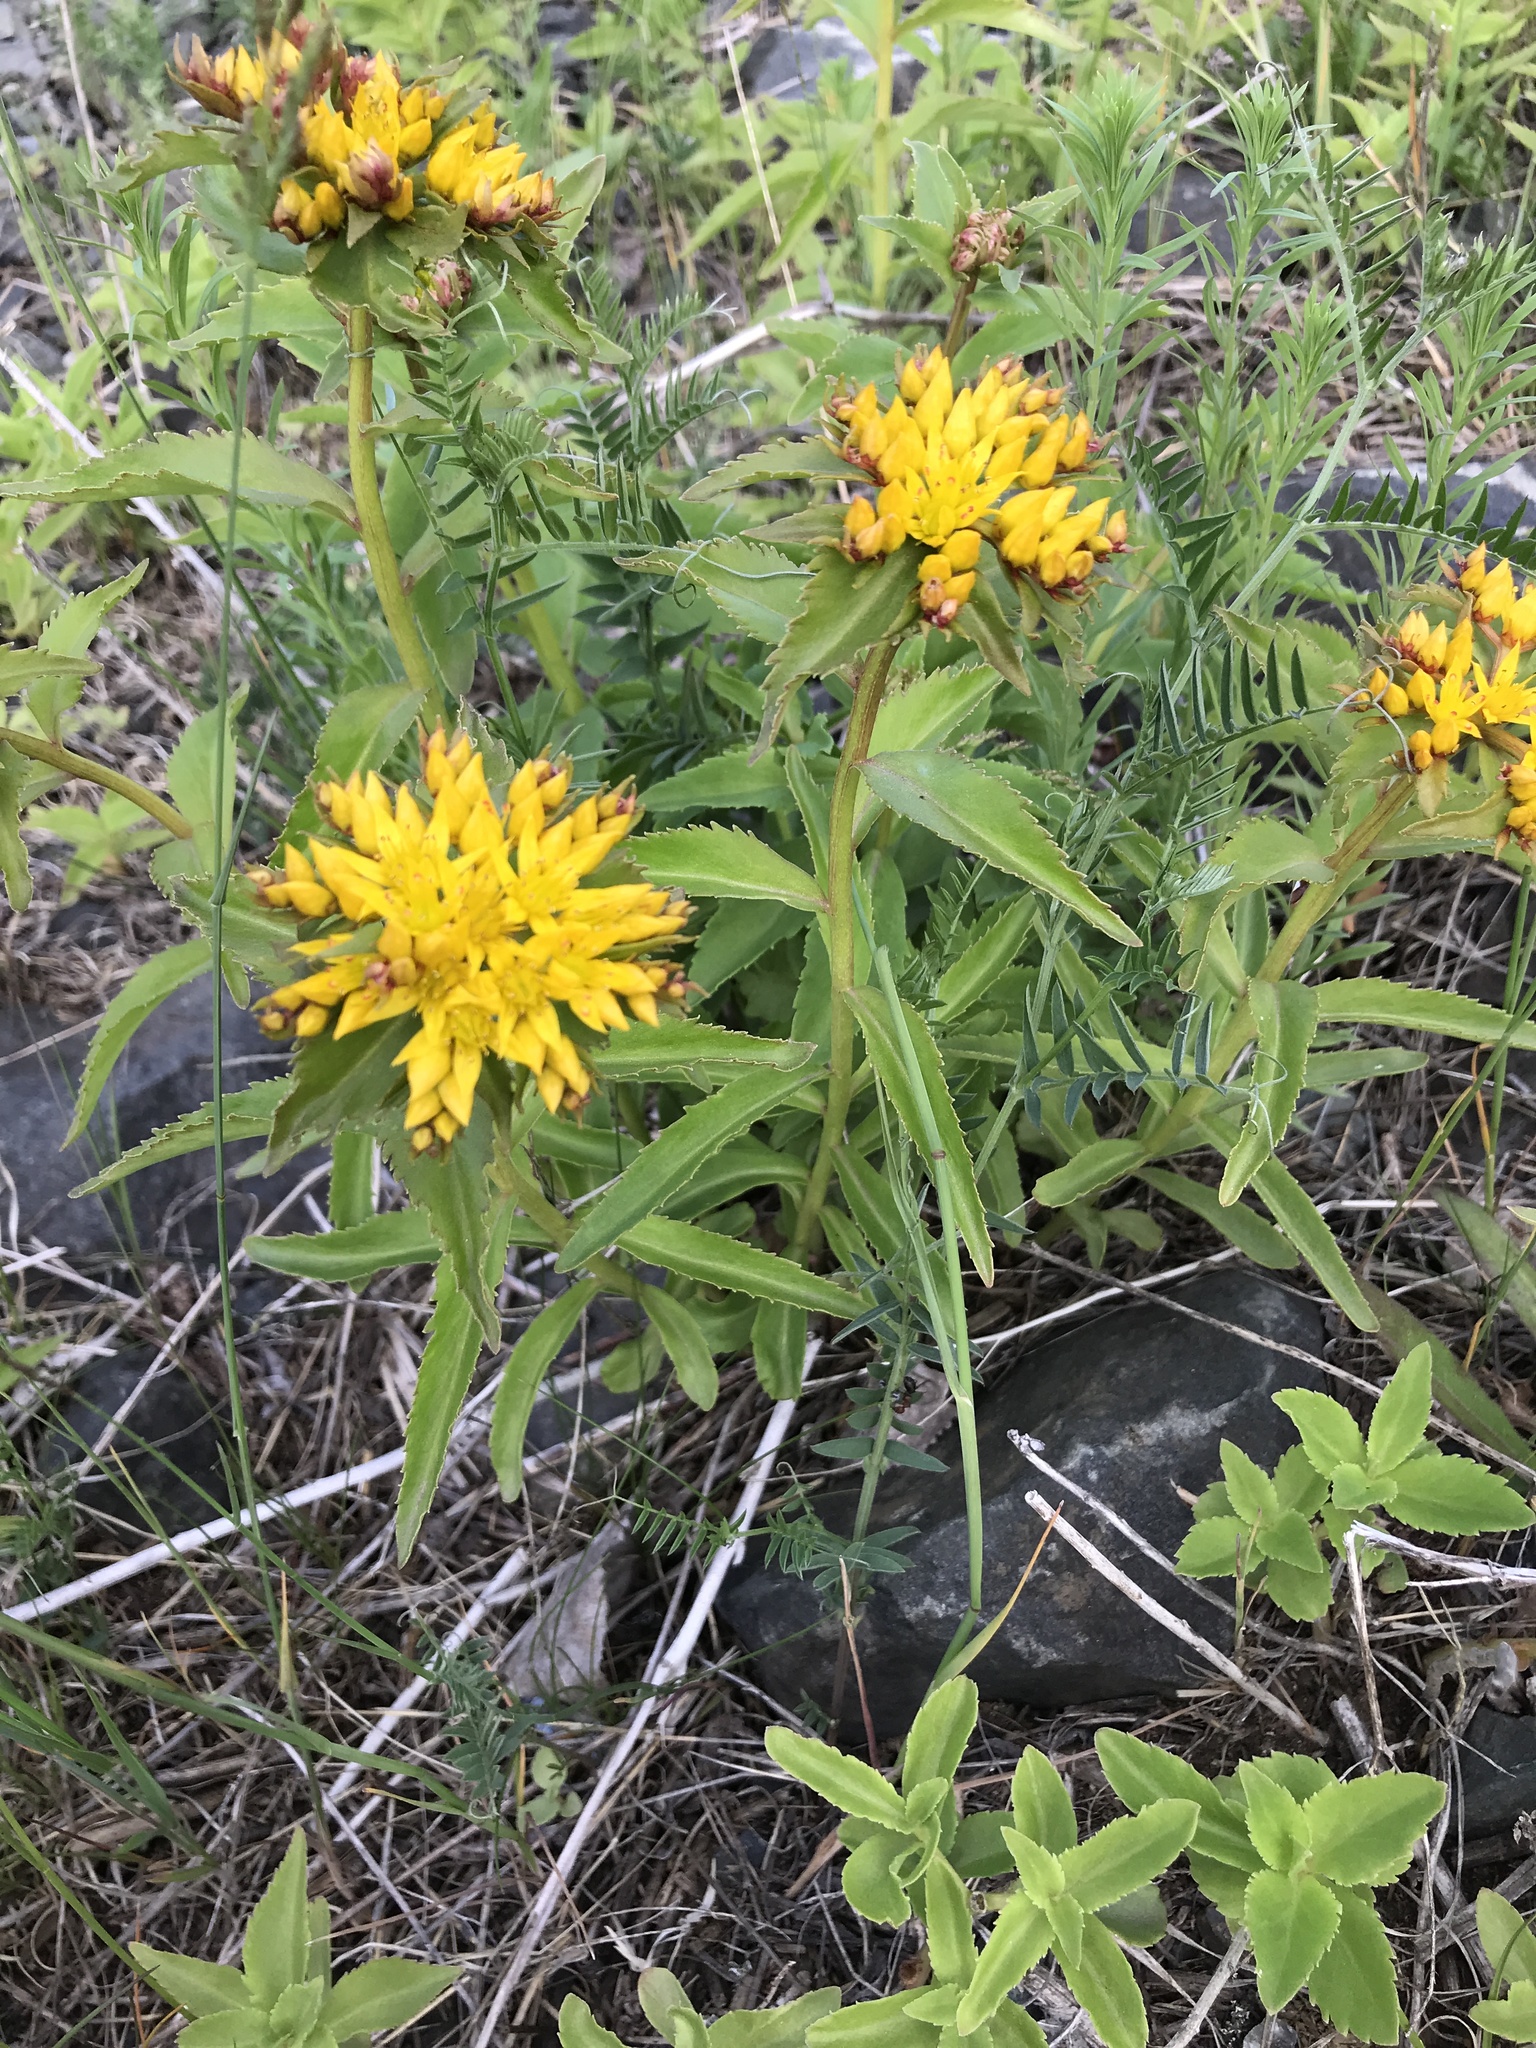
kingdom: Plantae
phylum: Tracheophyta
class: Magnoliopsida
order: Saxifragales
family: Crassulaceae
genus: Phedimus
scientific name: Phedimus aizoon
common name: Orpin aizoon
